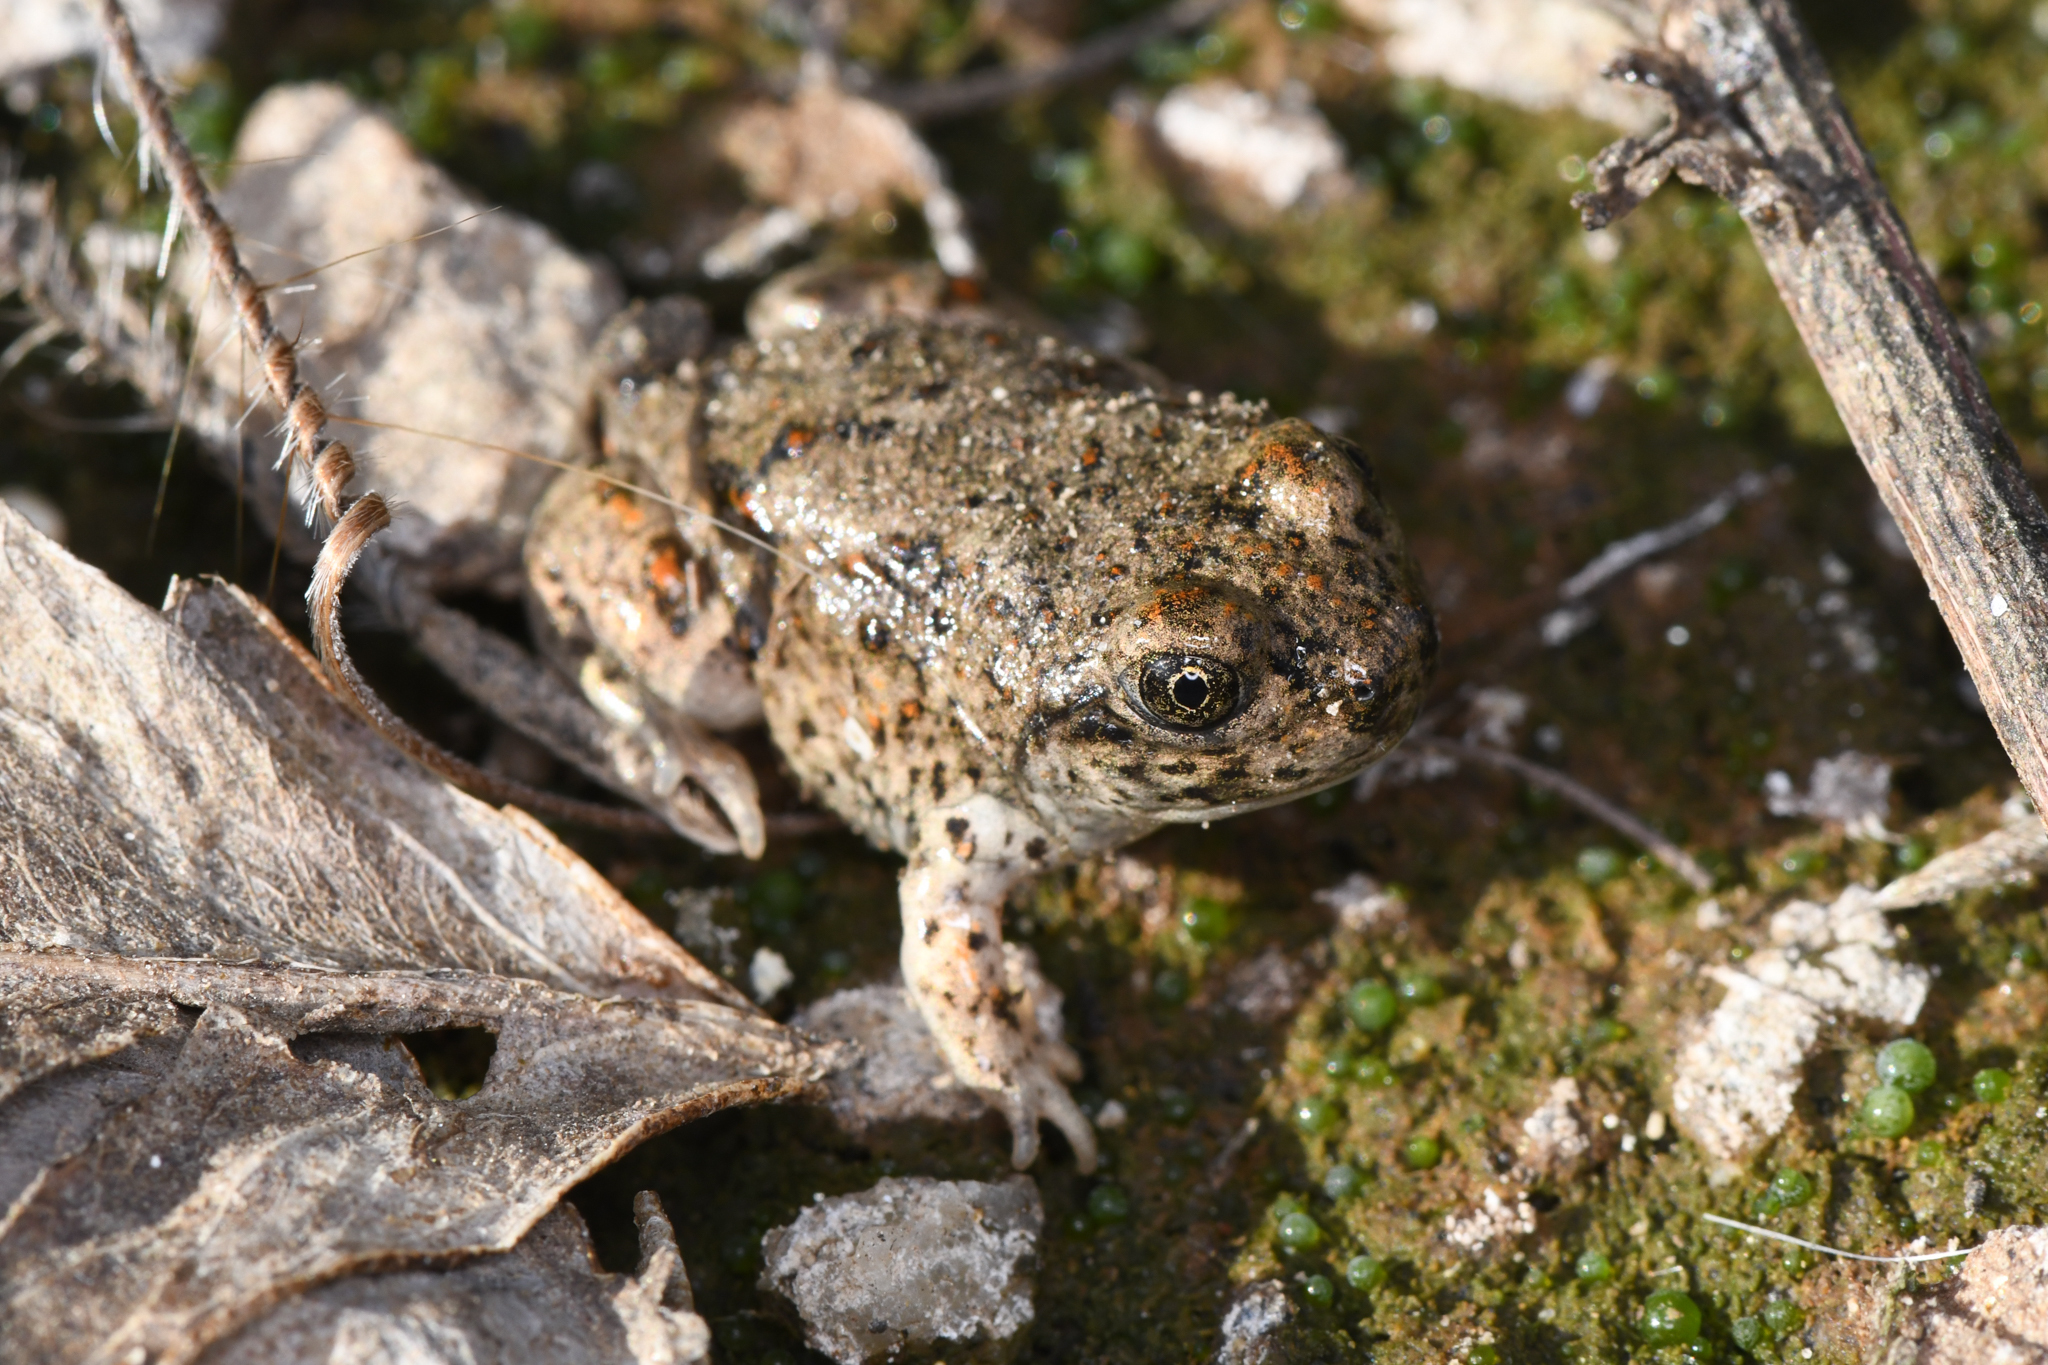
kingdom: Animalia
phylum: Chordata
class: Amphibia
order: Anura
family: Scaphiopodidae
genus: Spea
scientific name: Spea hammondii
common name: Western spadefoot toad
